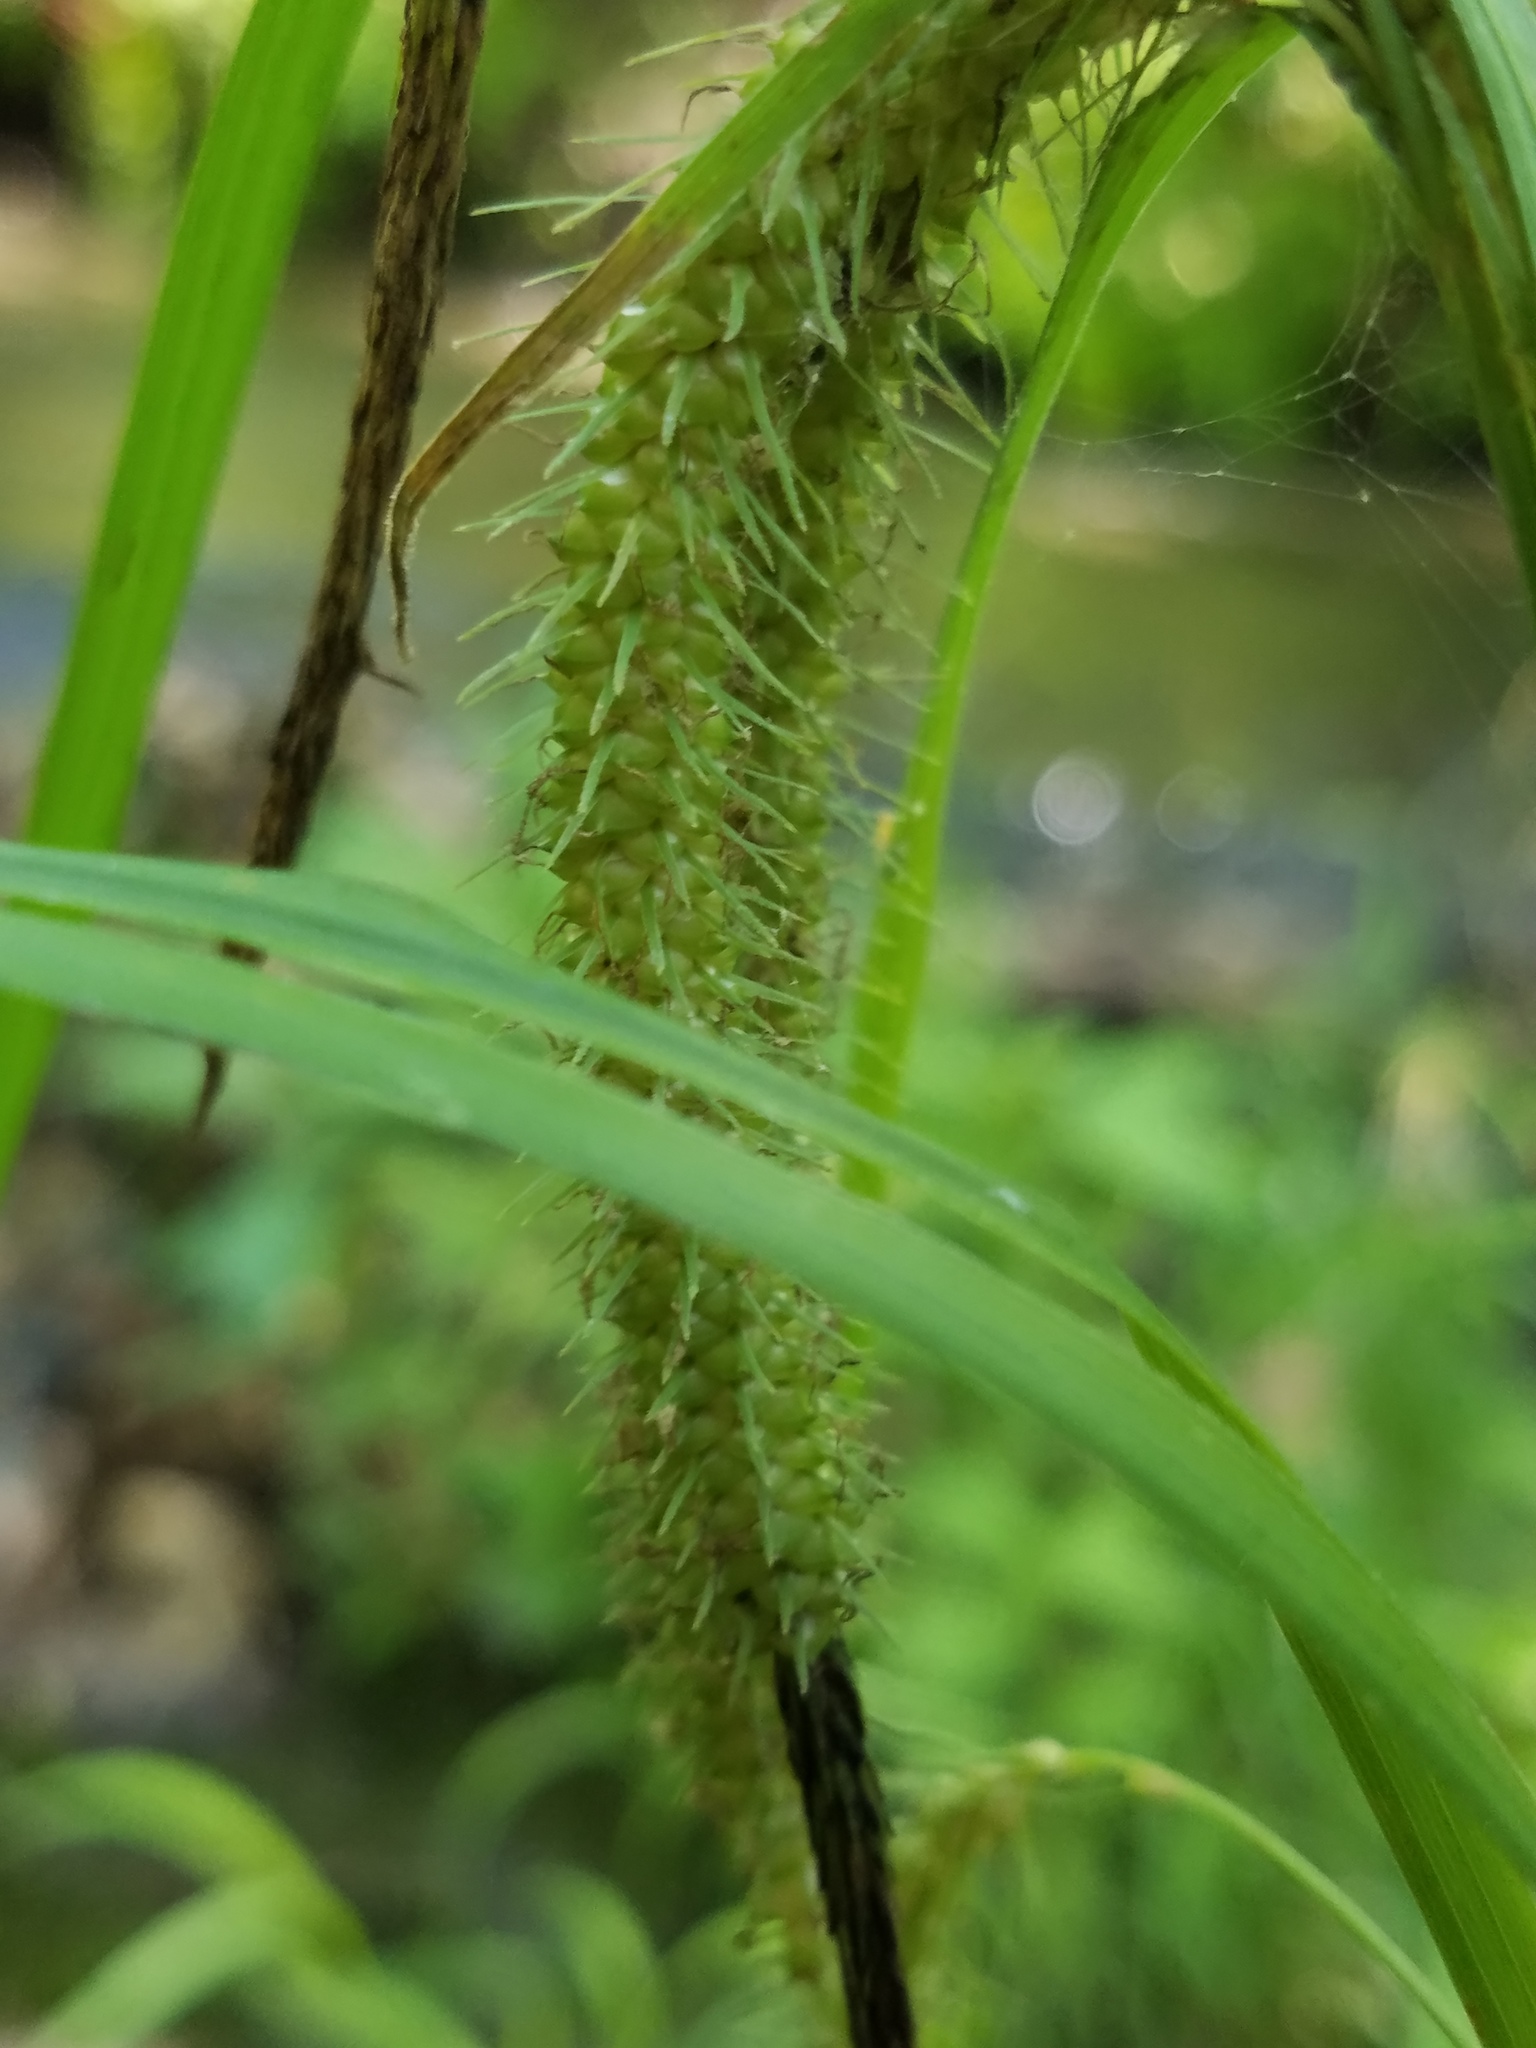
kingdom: Plantae
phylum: Tracheophyta
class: Liliopsida
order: Poales
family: Cyperaceae
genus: Carex
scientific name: Carex crinita
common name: Fringed sedge
